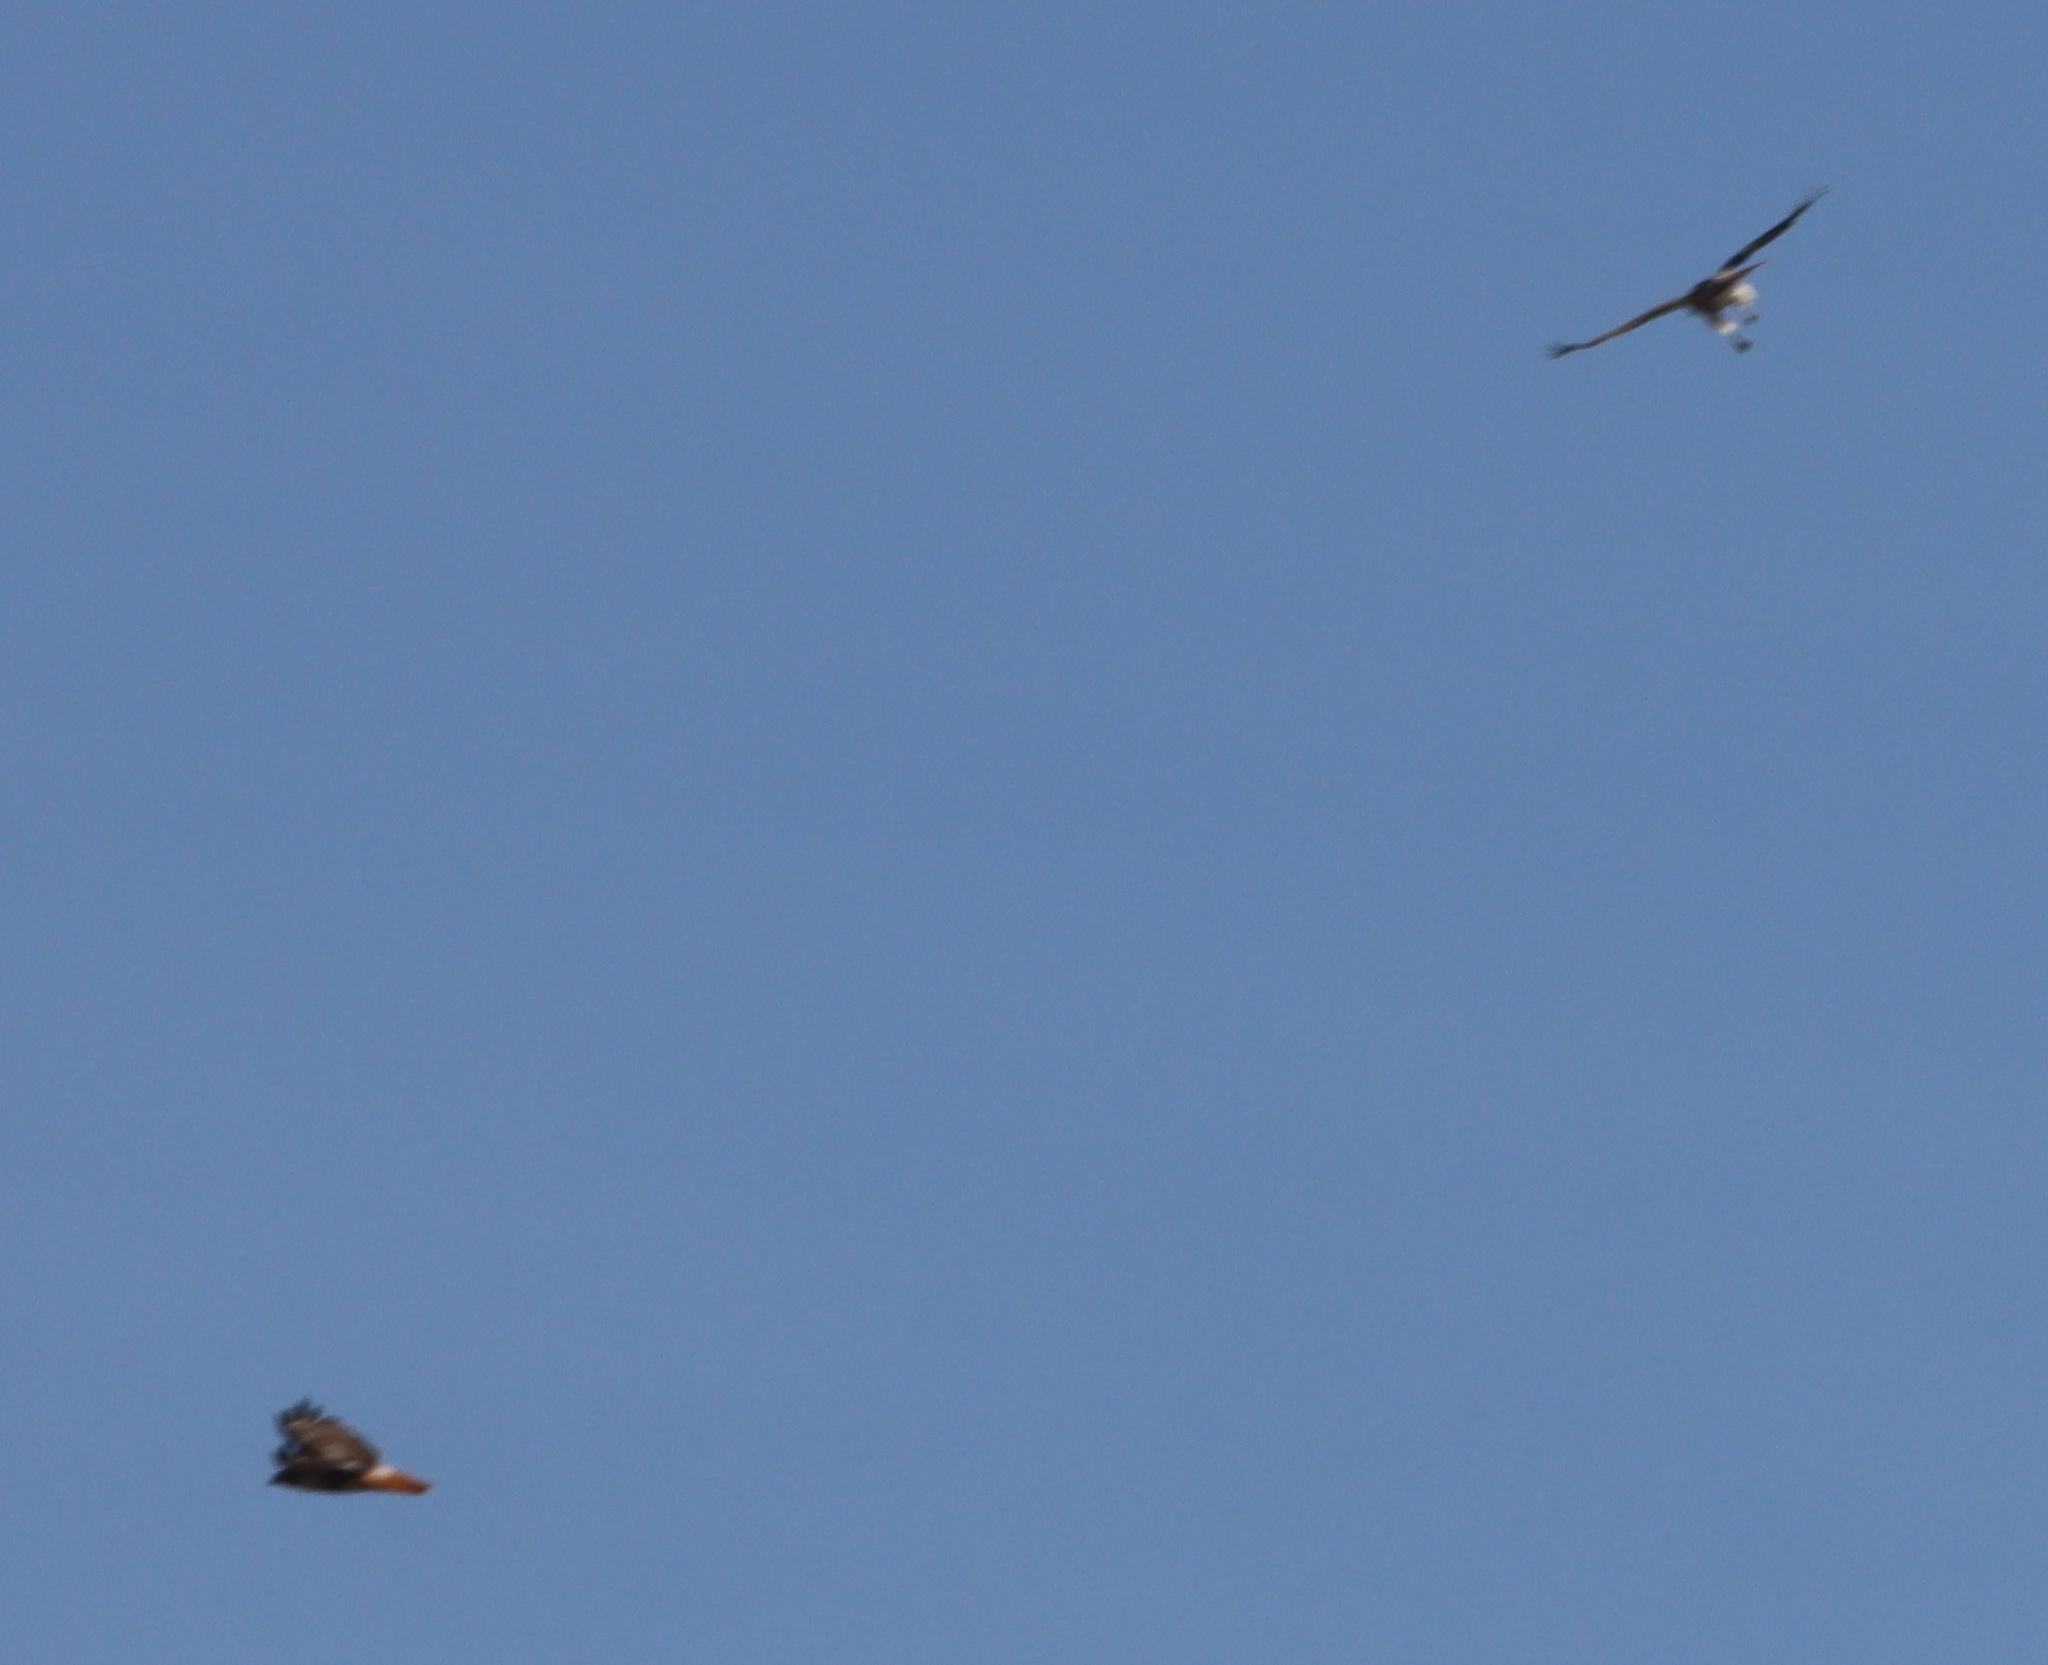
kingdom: Animalia
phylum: Chordata
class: Aves
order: Accipitriformes
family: Accipitridae
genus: Buteo
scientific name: Buteo jamaicensis
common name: Red-tailed hawk
